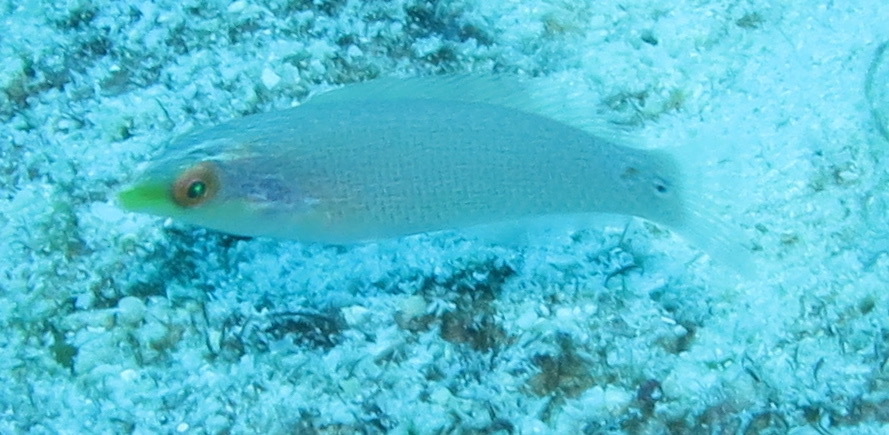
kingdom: Animalia
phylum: Chordata
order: Perciformes
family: Labridae
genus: Halichoeres
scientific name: Halichoeres trimaculatus
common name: Three-spot wrasse
